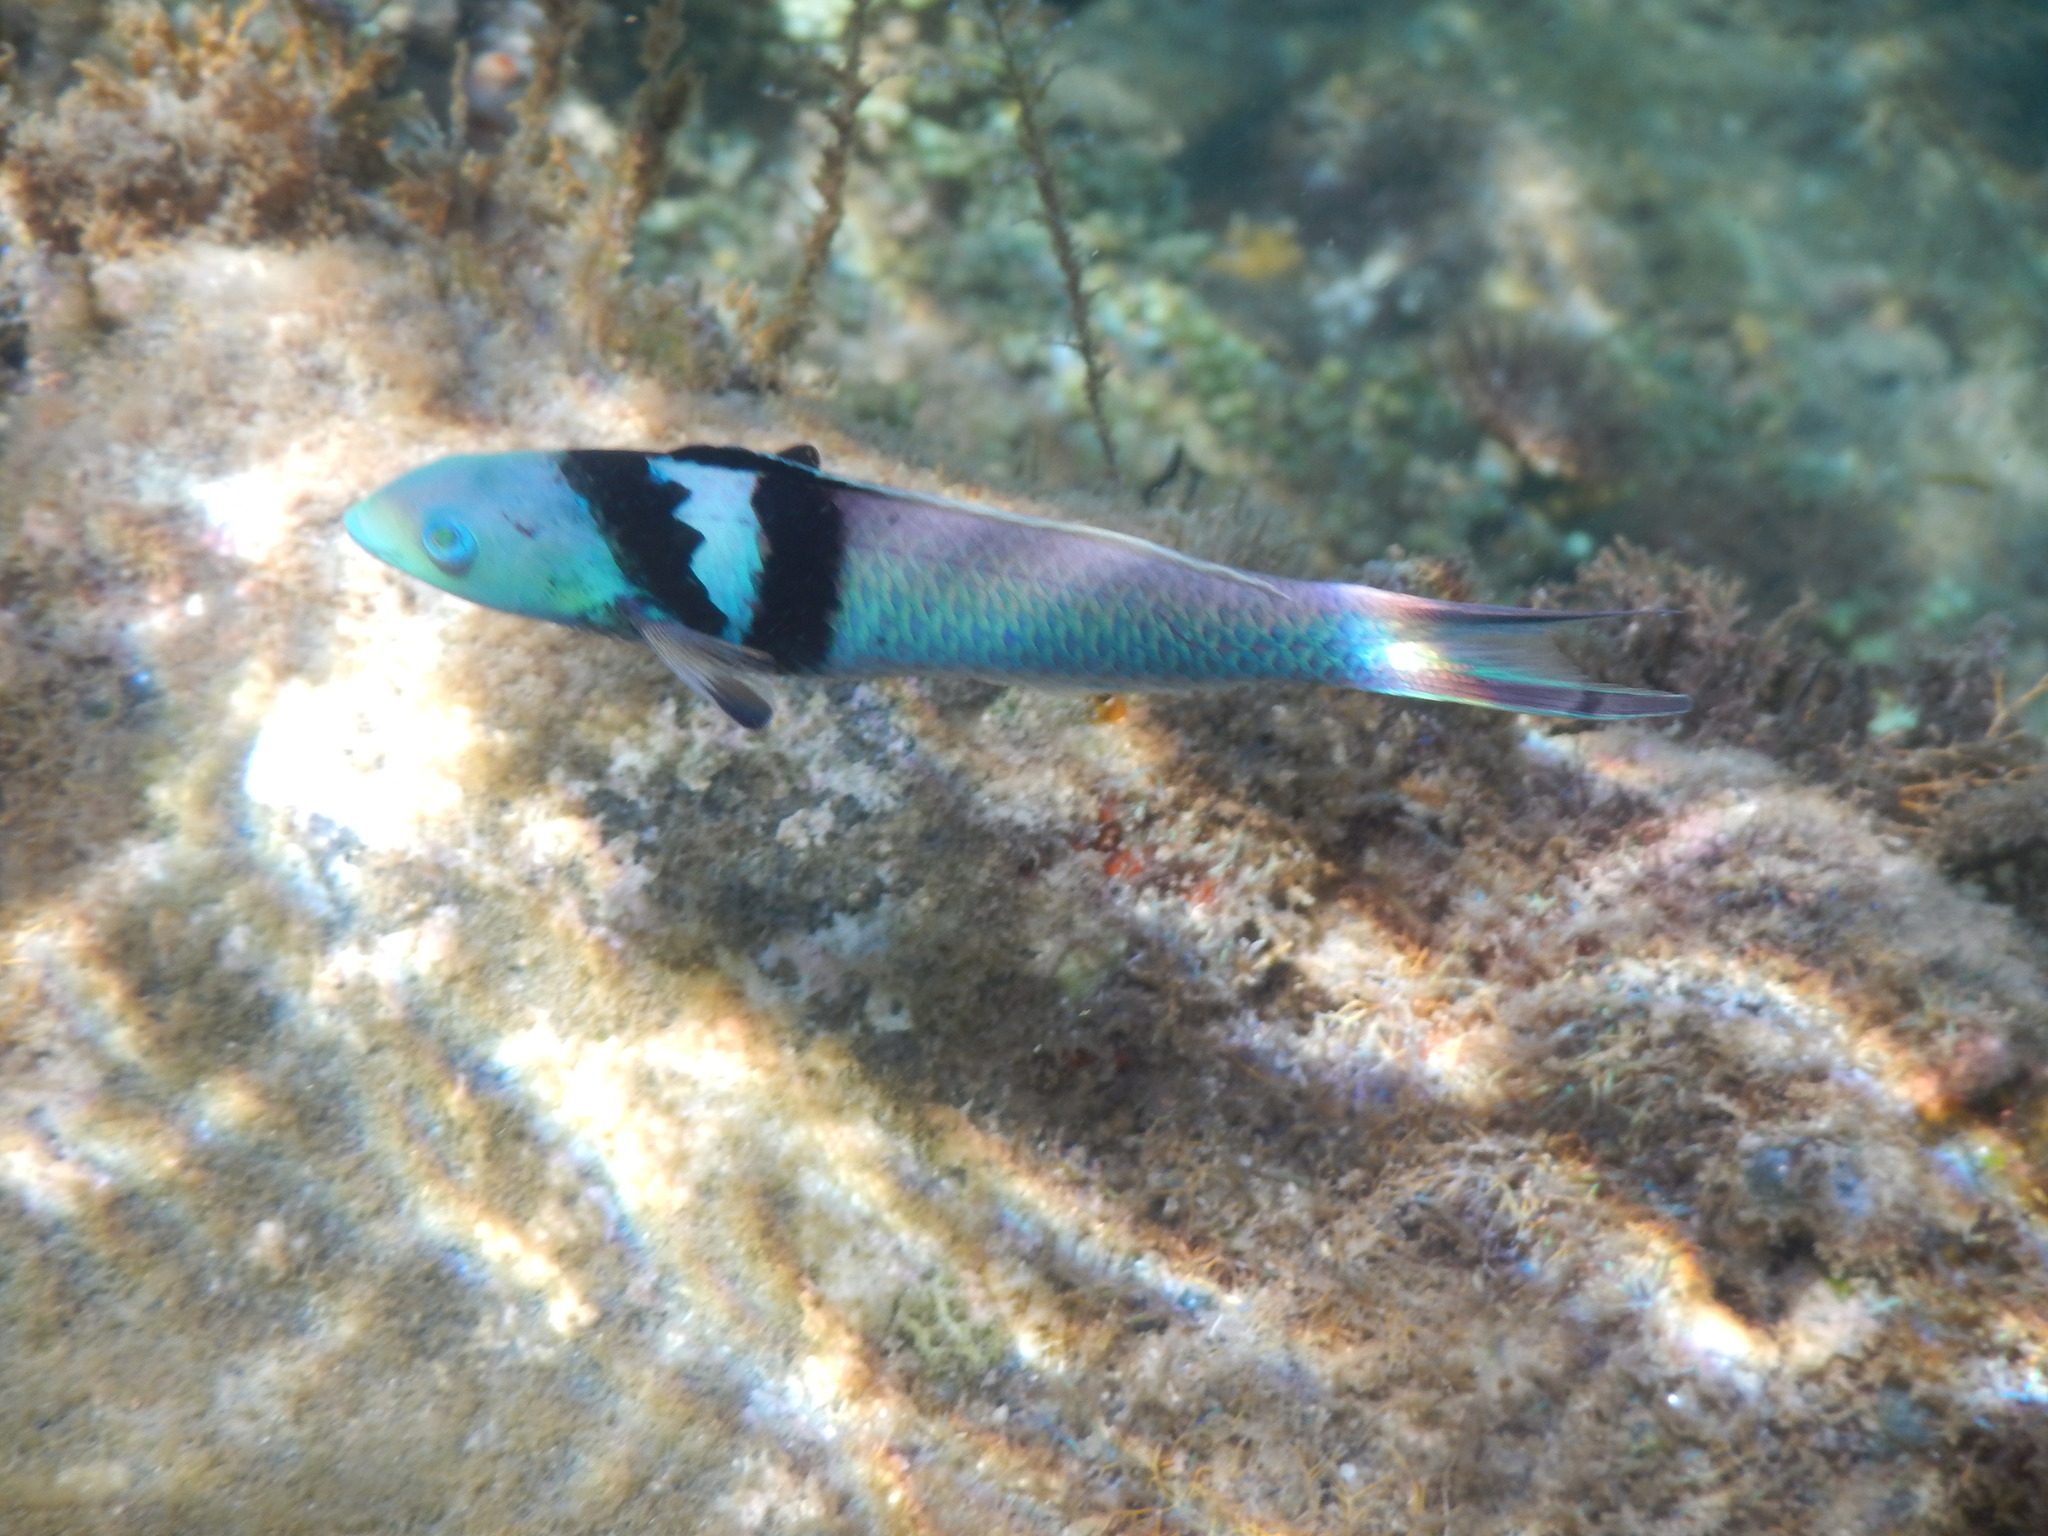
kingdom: Animalia
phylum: Chordata
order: Perciformes
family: Labridae
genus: Thalassoma
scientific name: Thalassoma bifasciatum
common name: Bluehead wrasse
